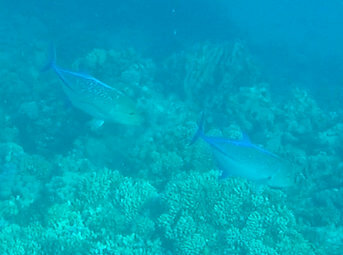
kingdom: Animalia
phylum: Chordata
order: Perciformes
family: Carangidae
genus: Caranx
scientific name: Caranx melampygus
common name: Bluefin trevally
